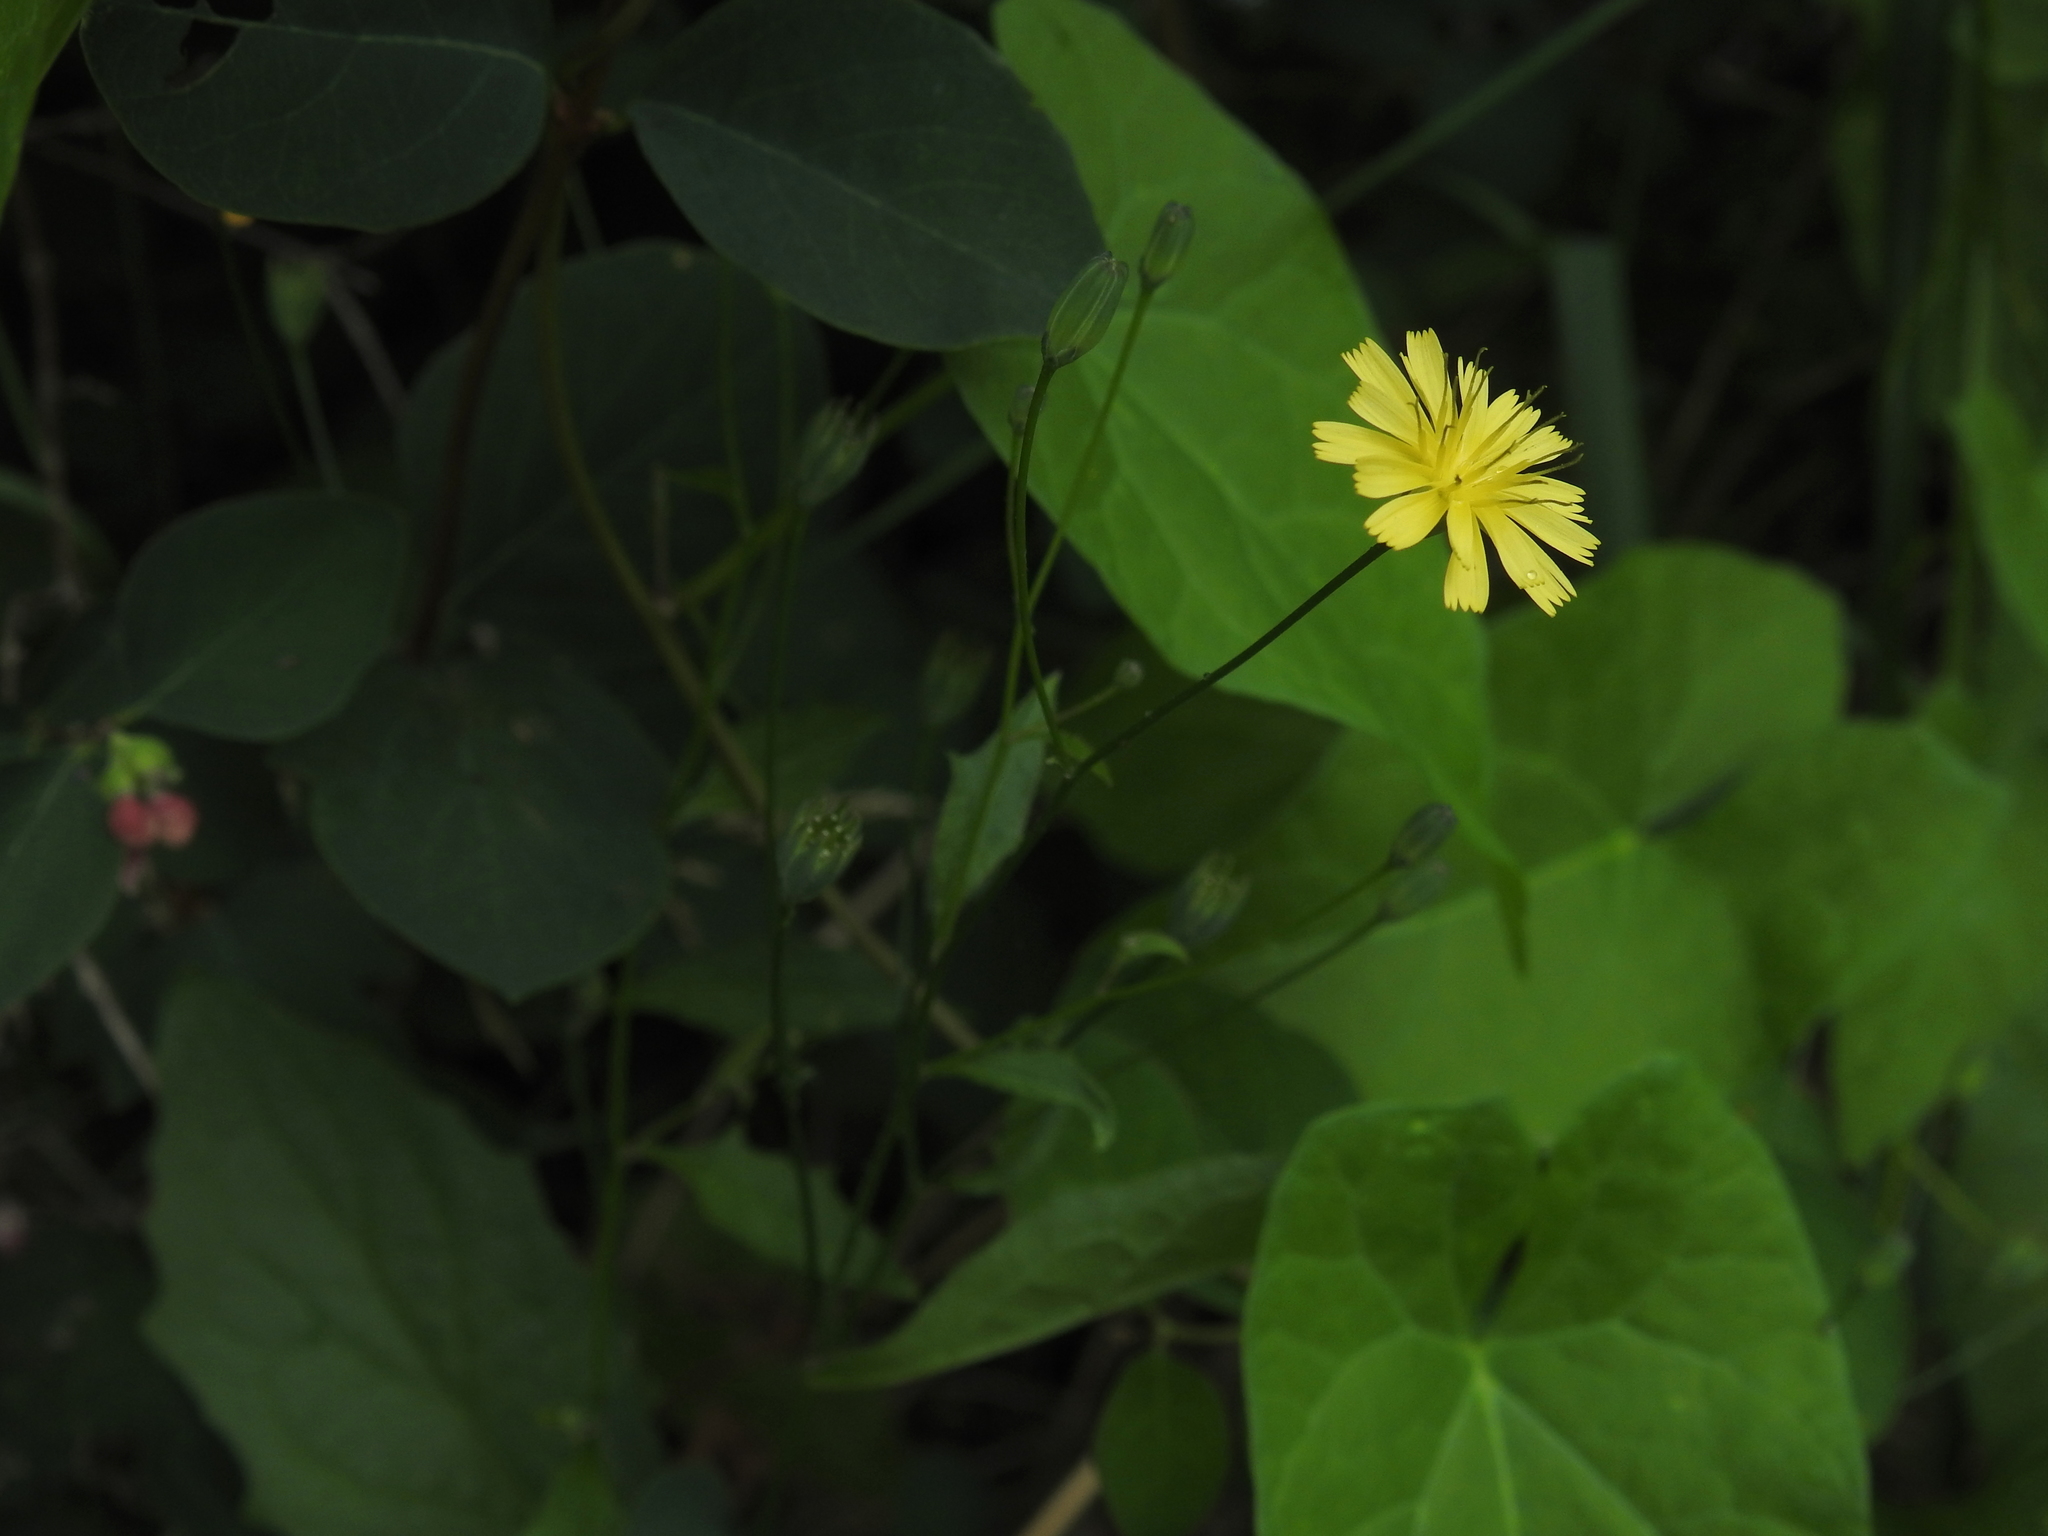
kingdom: Plantae
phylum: Tracheophyta
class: Magnoliopsida
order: Asterales
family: Asteraceae
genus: Lapsana
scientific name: Lapsana communis
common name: Nipplewort
